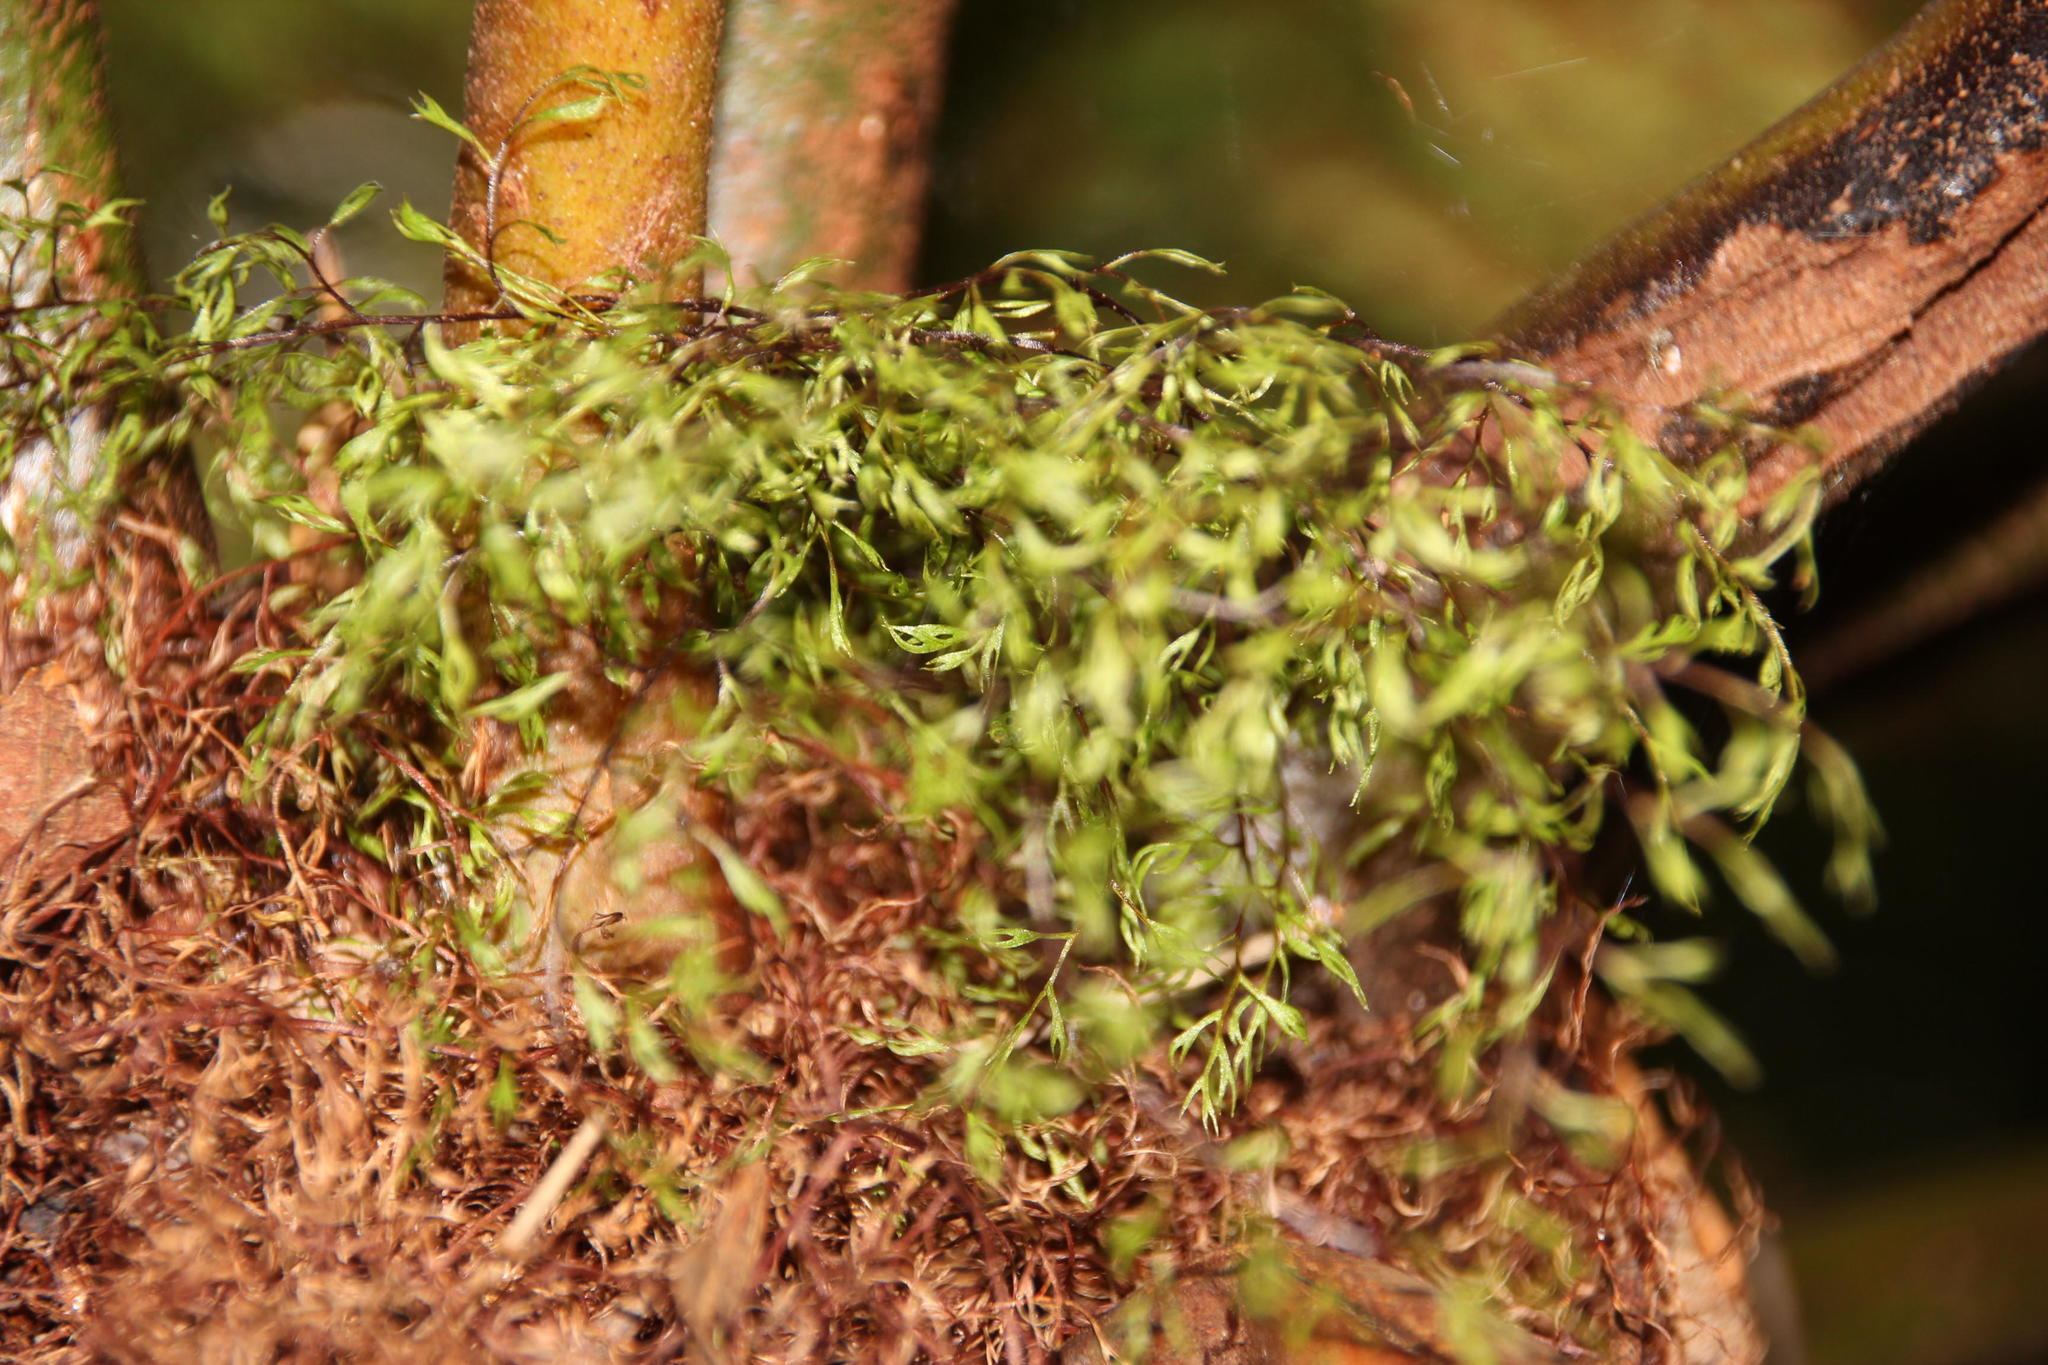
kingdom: Plantae
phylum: Tracheophyta
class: Polypodiopsida
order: Cyatheales
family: Cyatheaceae
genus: Gymnosphaera
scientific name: Gymnosphaera capensis
